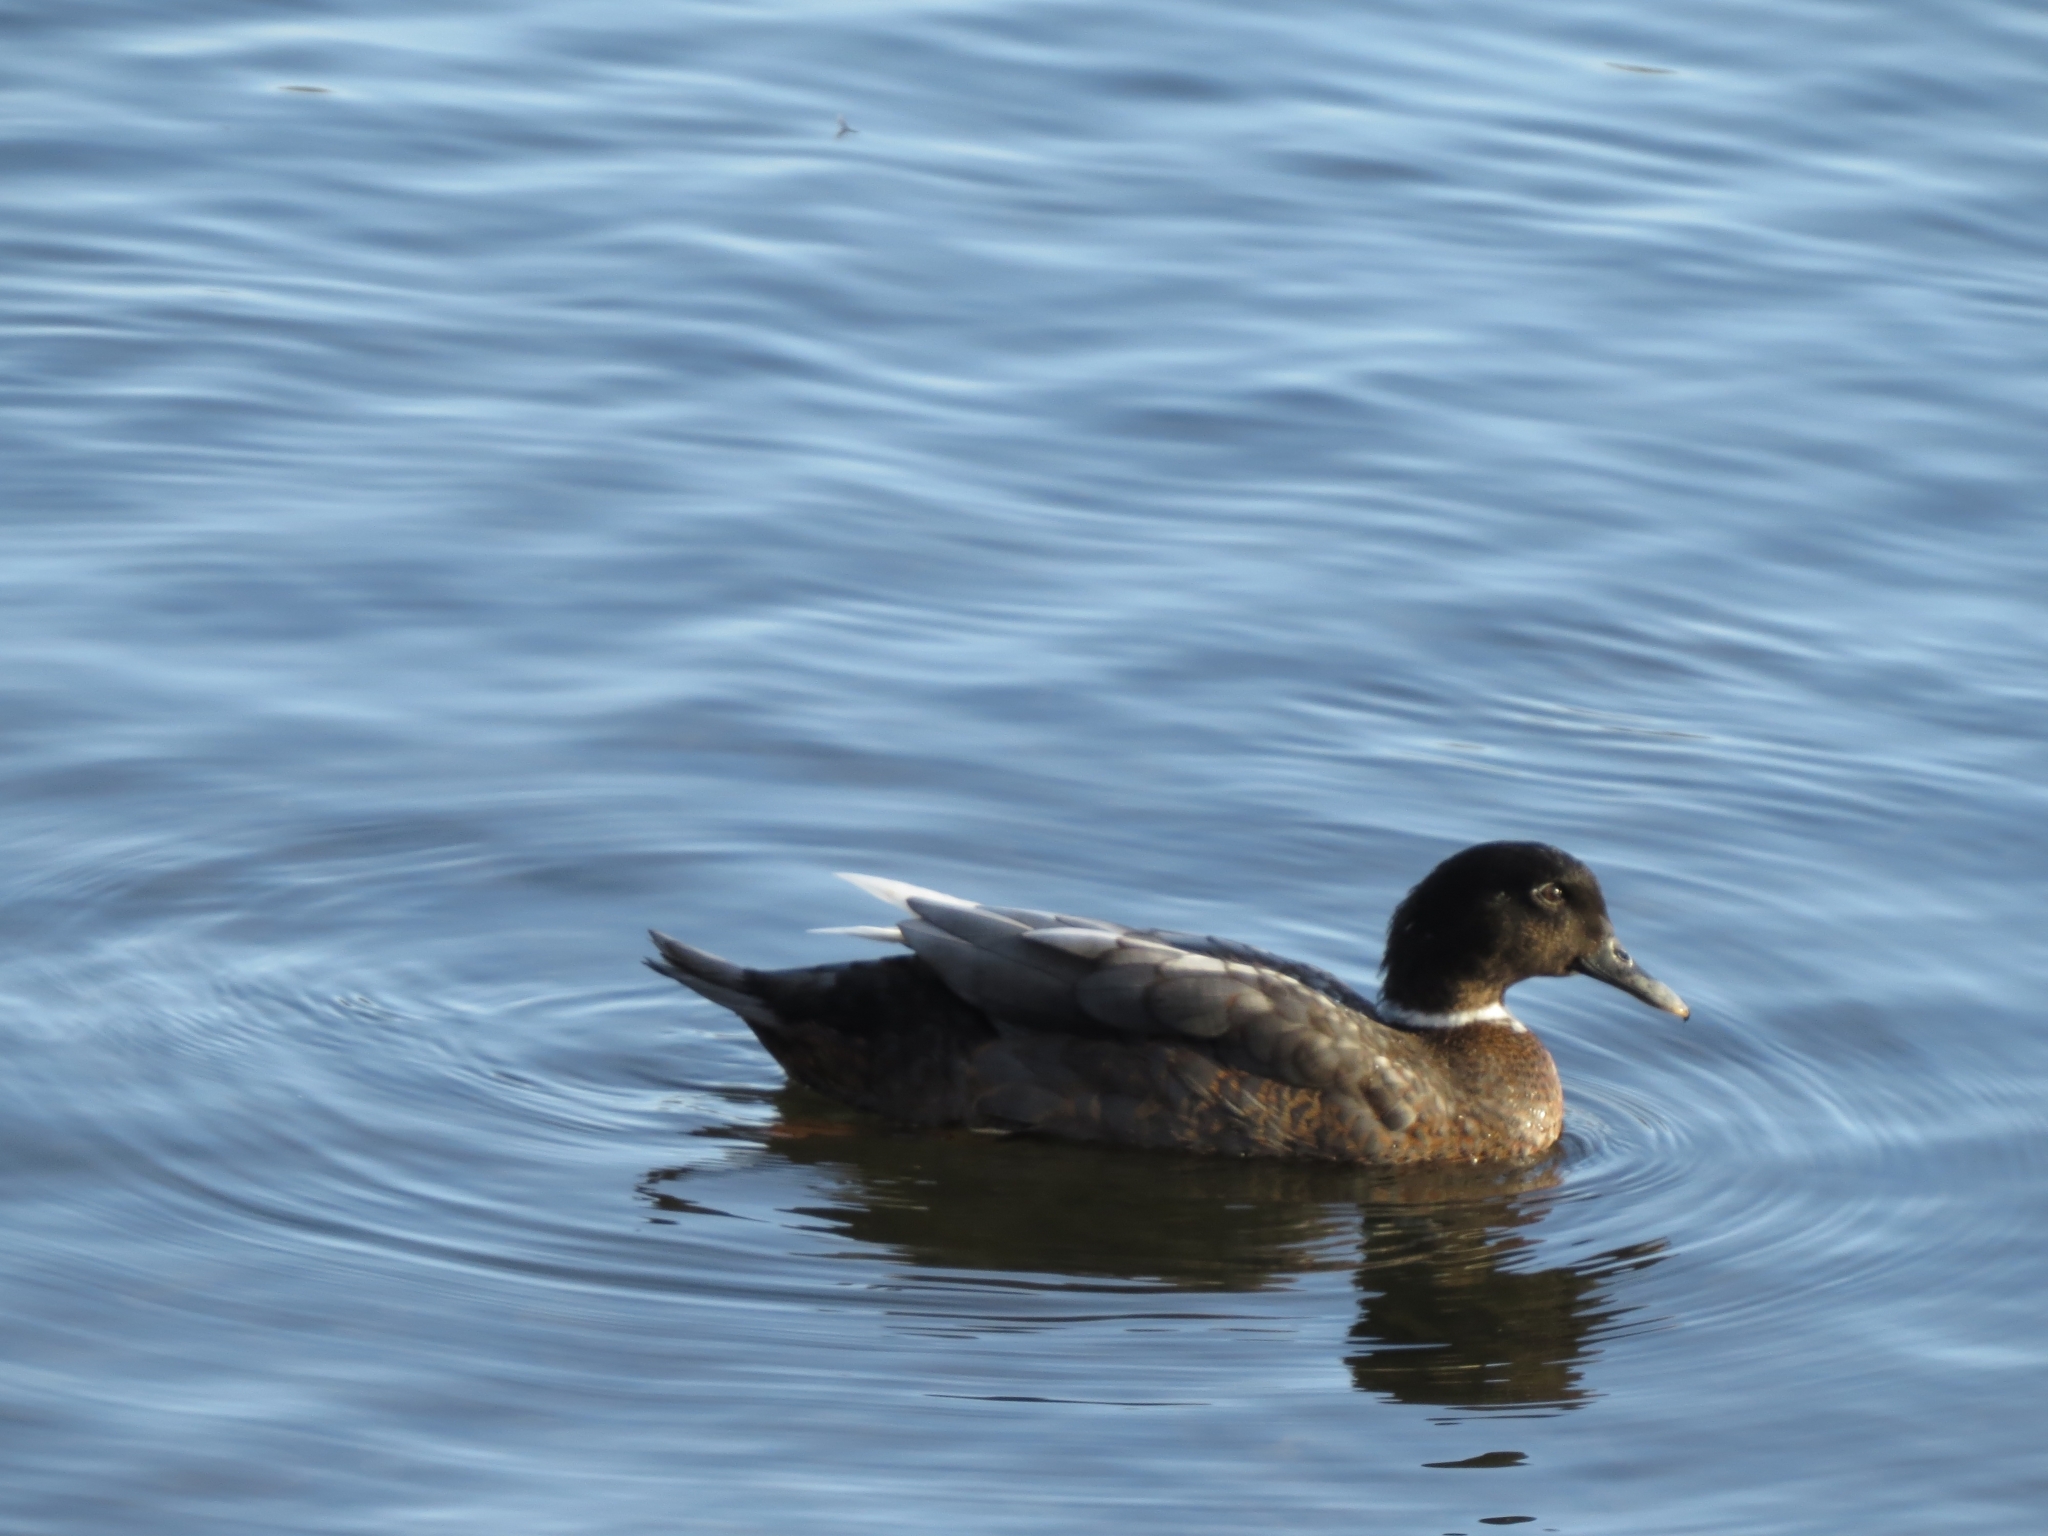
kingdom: Animalia
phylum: Chordata
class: Aves
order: Anseriformes
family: Anatidae
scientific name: Anatidae
